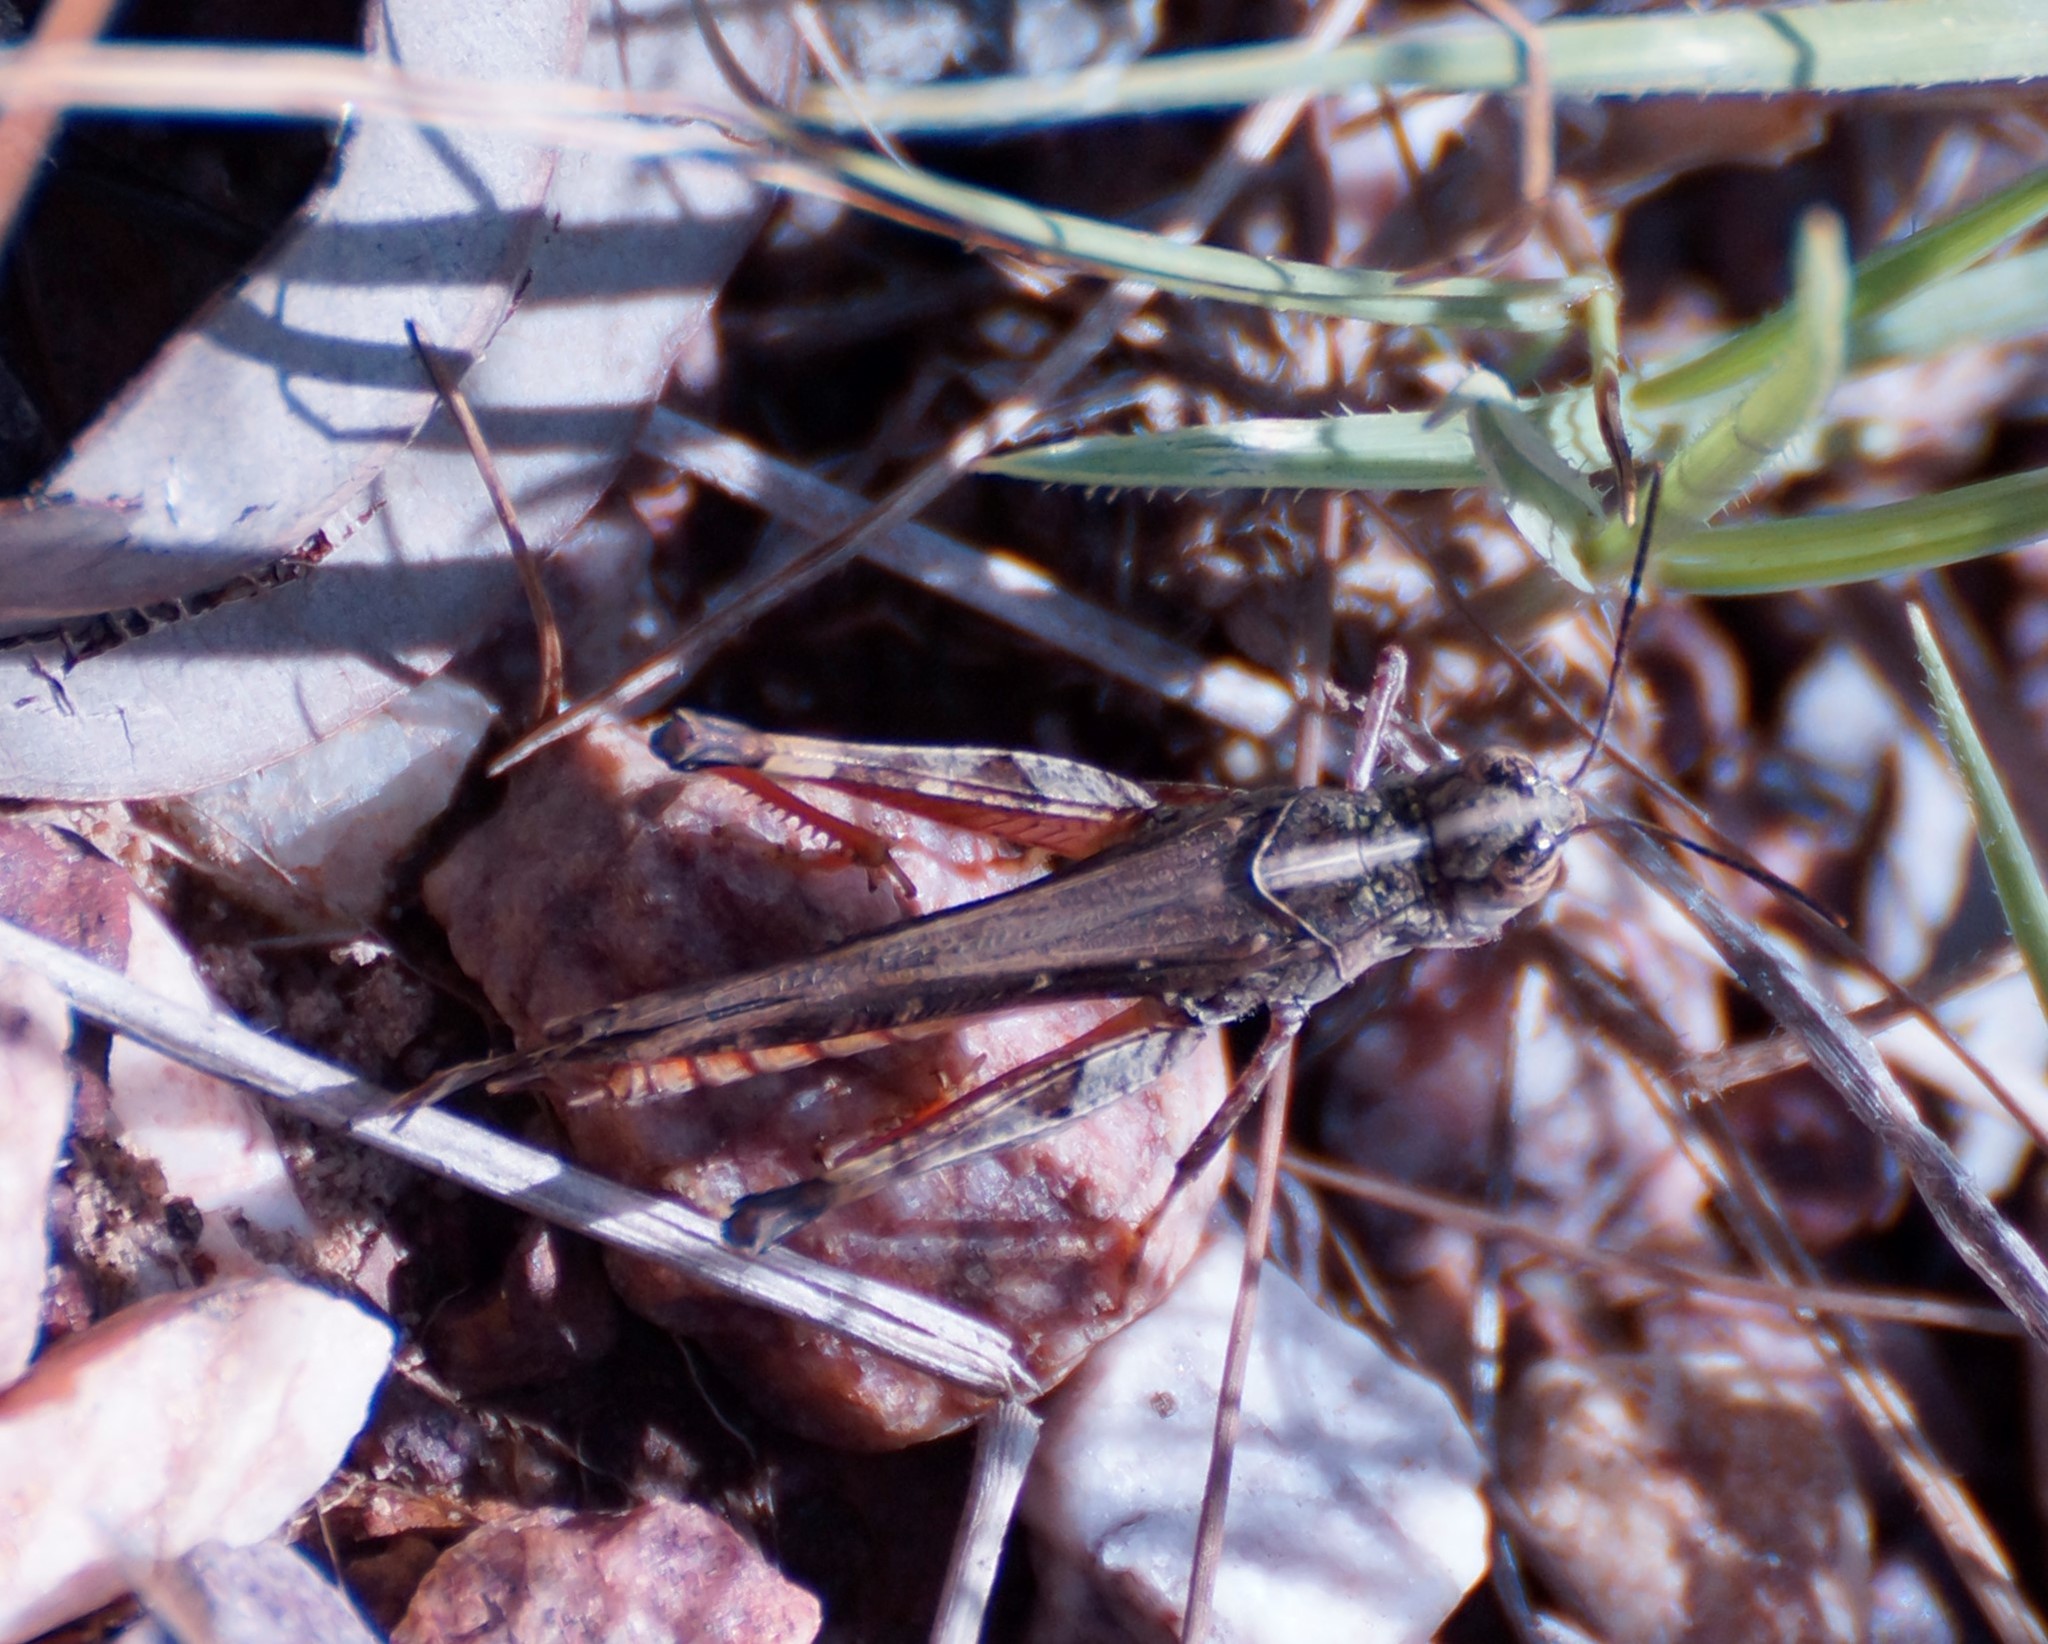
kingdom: Animalia
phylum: Arthropoda
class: Insecta
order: Orthoptera
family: Acrididae
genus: Heteropternis
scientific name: Heteropternis obscurella
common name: Long-legged bandwing
